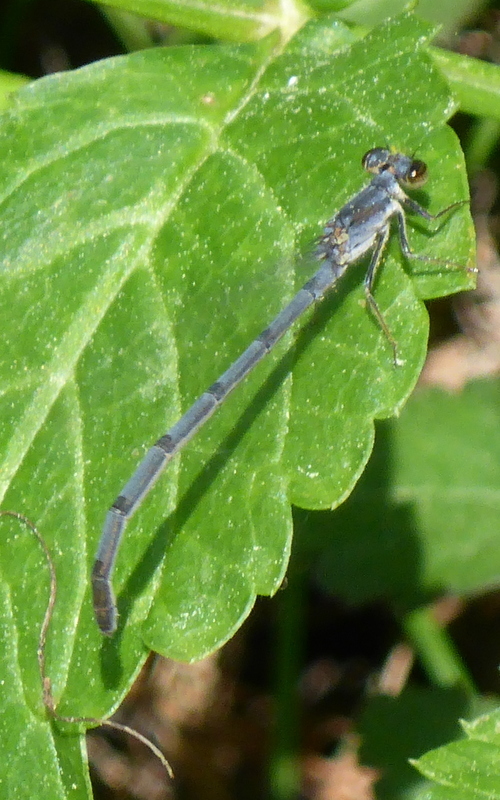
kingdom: Animalia
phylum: Arthropoda
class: Insecta
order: Odonata
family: Coenagrionidae
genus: Ischnura
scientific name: Ischnura posita
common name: Fragile forktail
